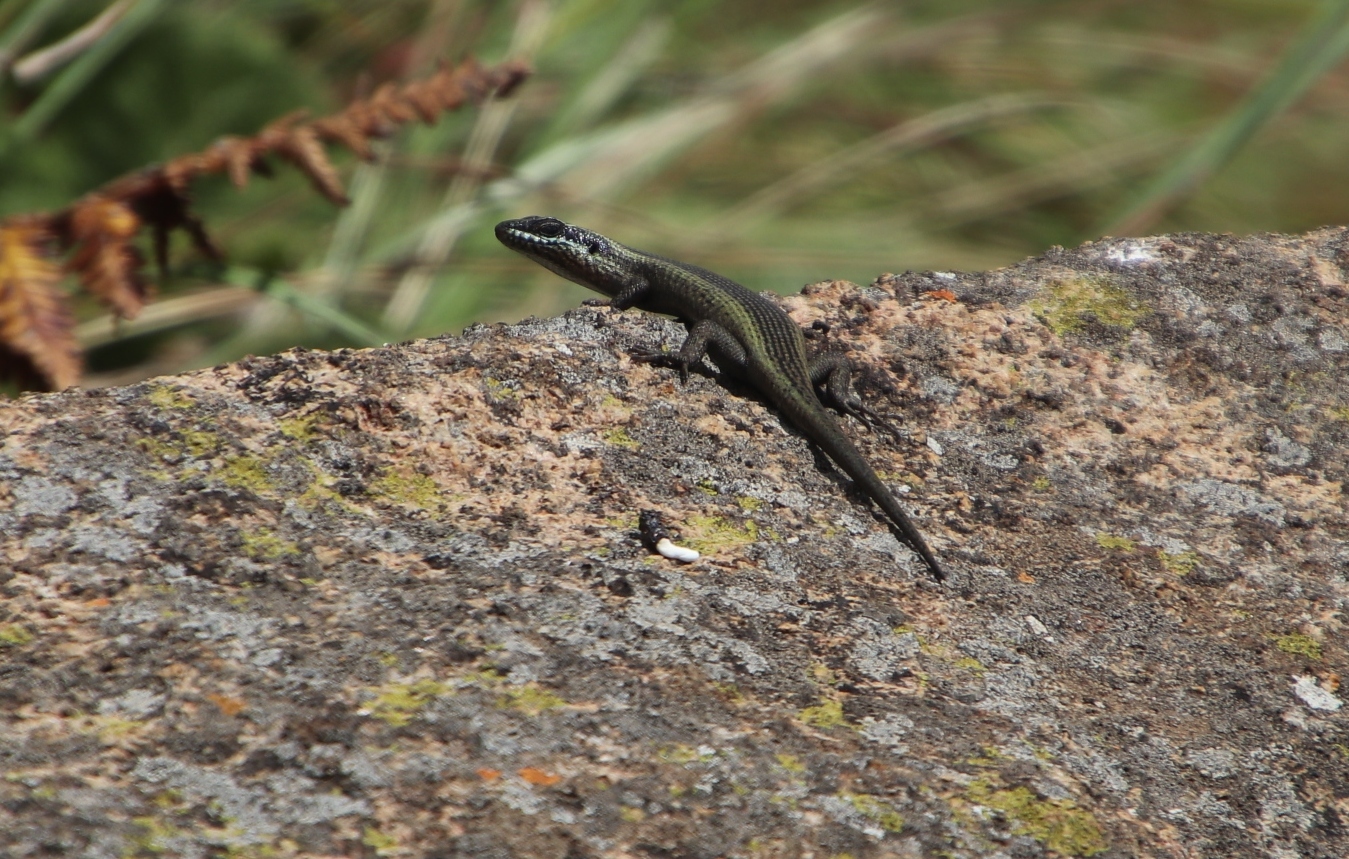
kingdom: Animalia
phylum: Chordata
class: Squamata
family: Scincidae
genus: Trachylepis
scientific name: Trachylepis punctatissima
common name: Montane speckled skink
